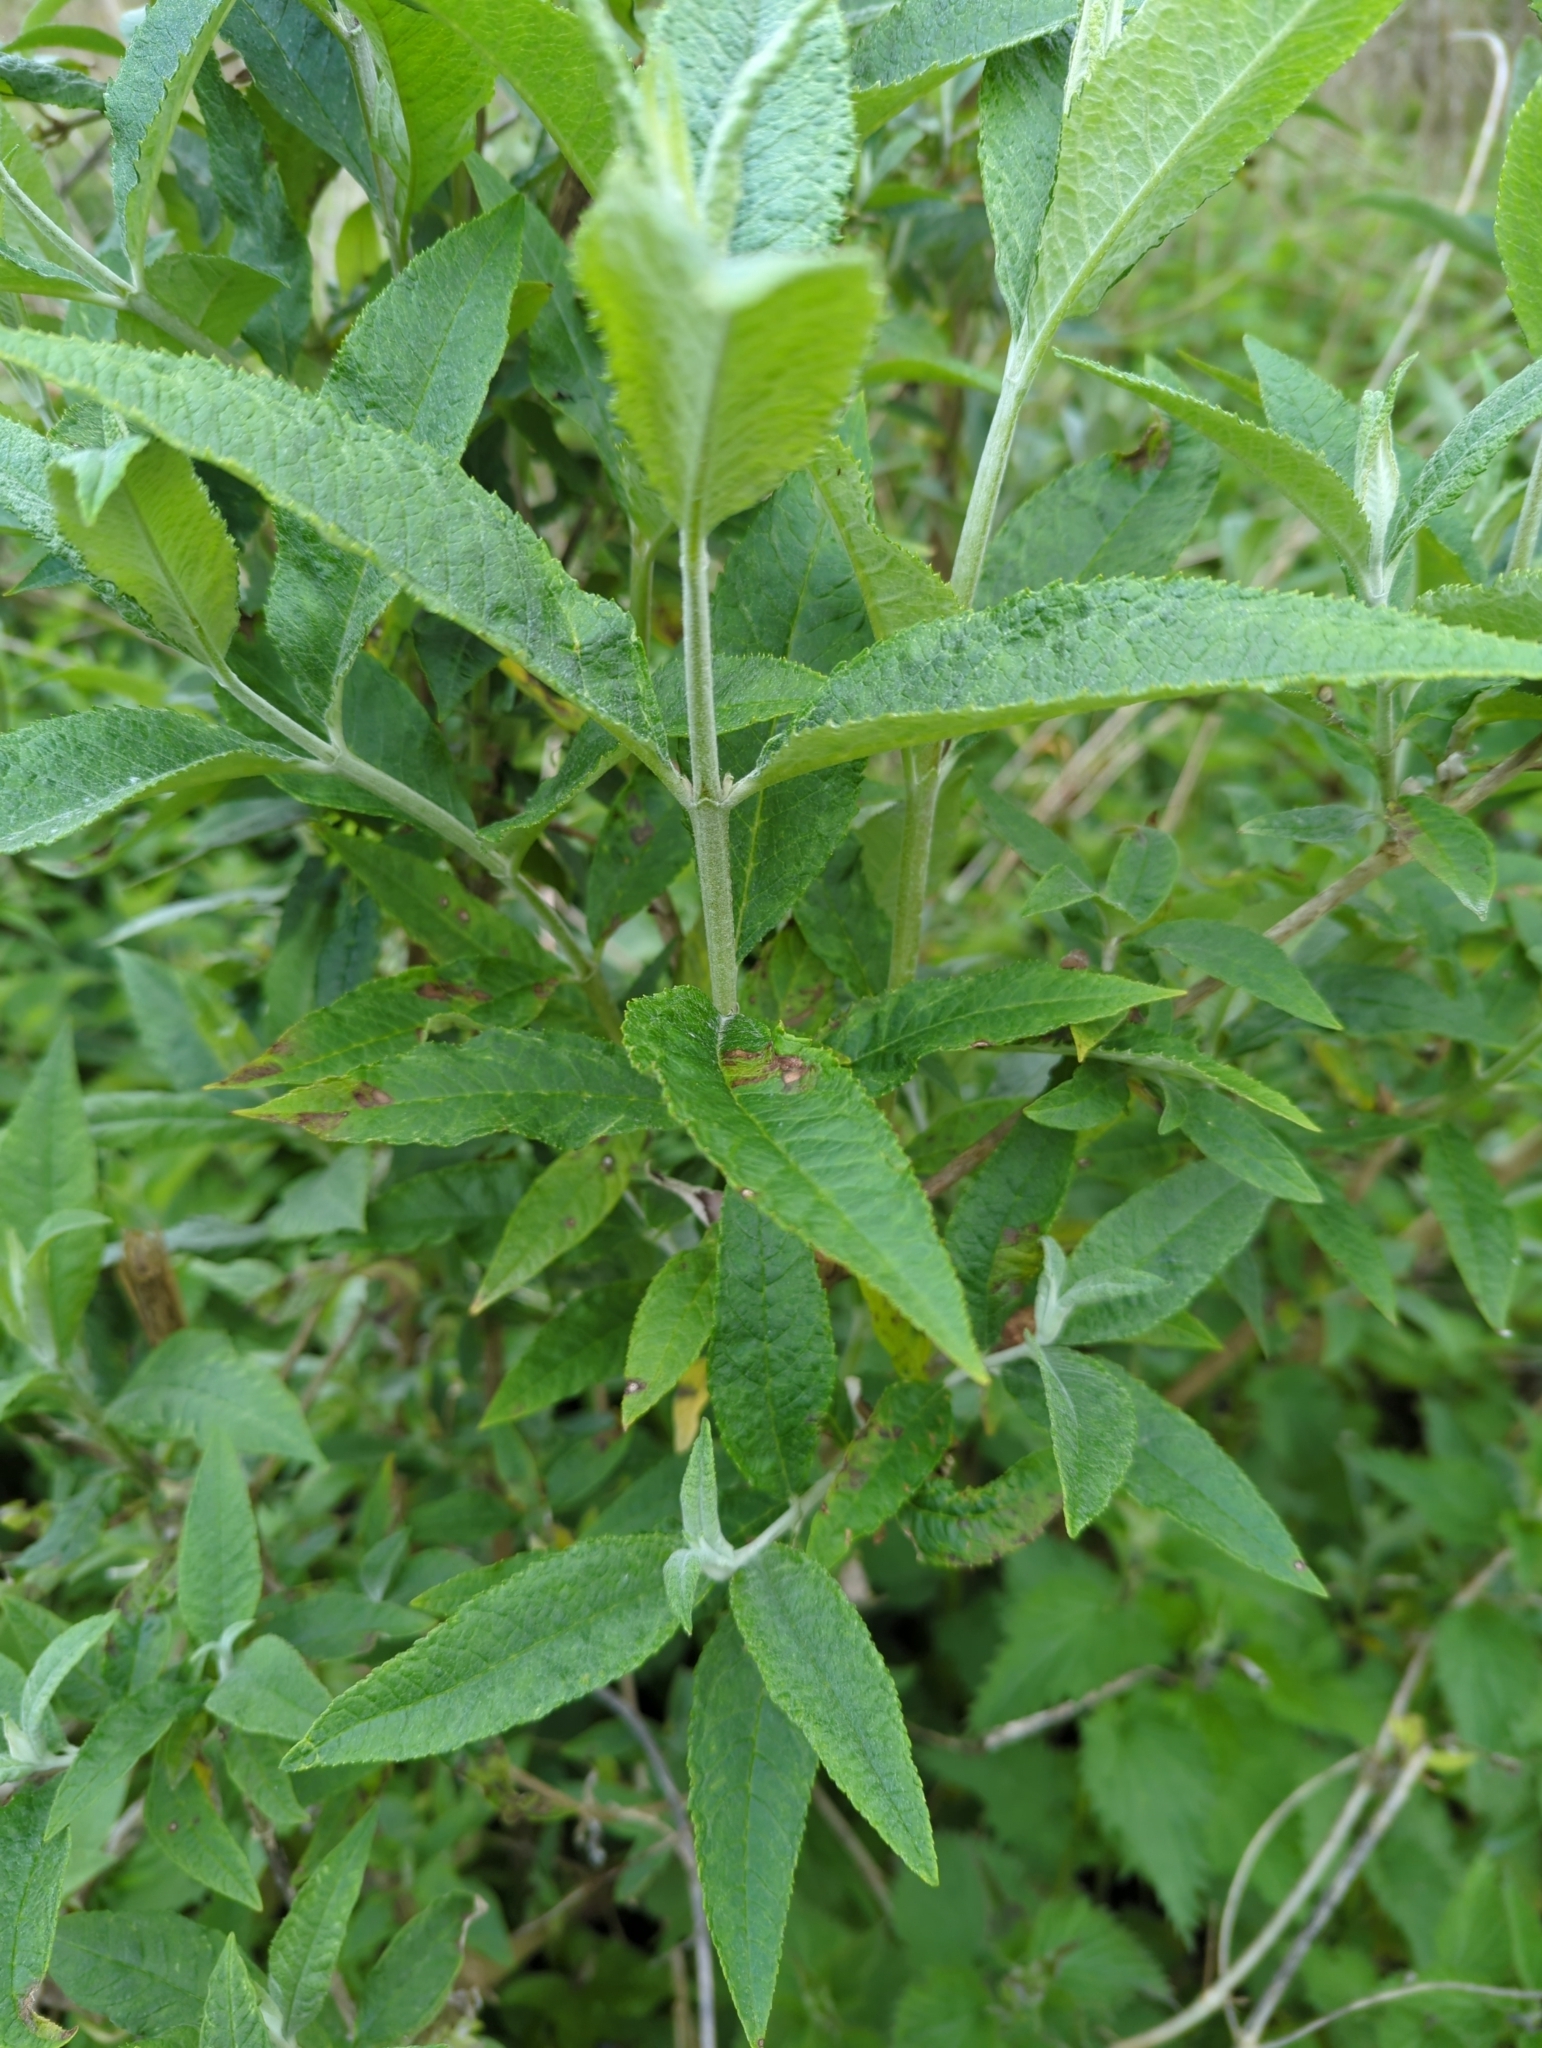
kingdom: Plantae
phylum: Tracheophyta
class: Magnoliopsida
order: Lamiales
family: Scrophulariaceae
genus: Buddleja
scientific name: Buddleja davidii
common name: Butterfly-bush
